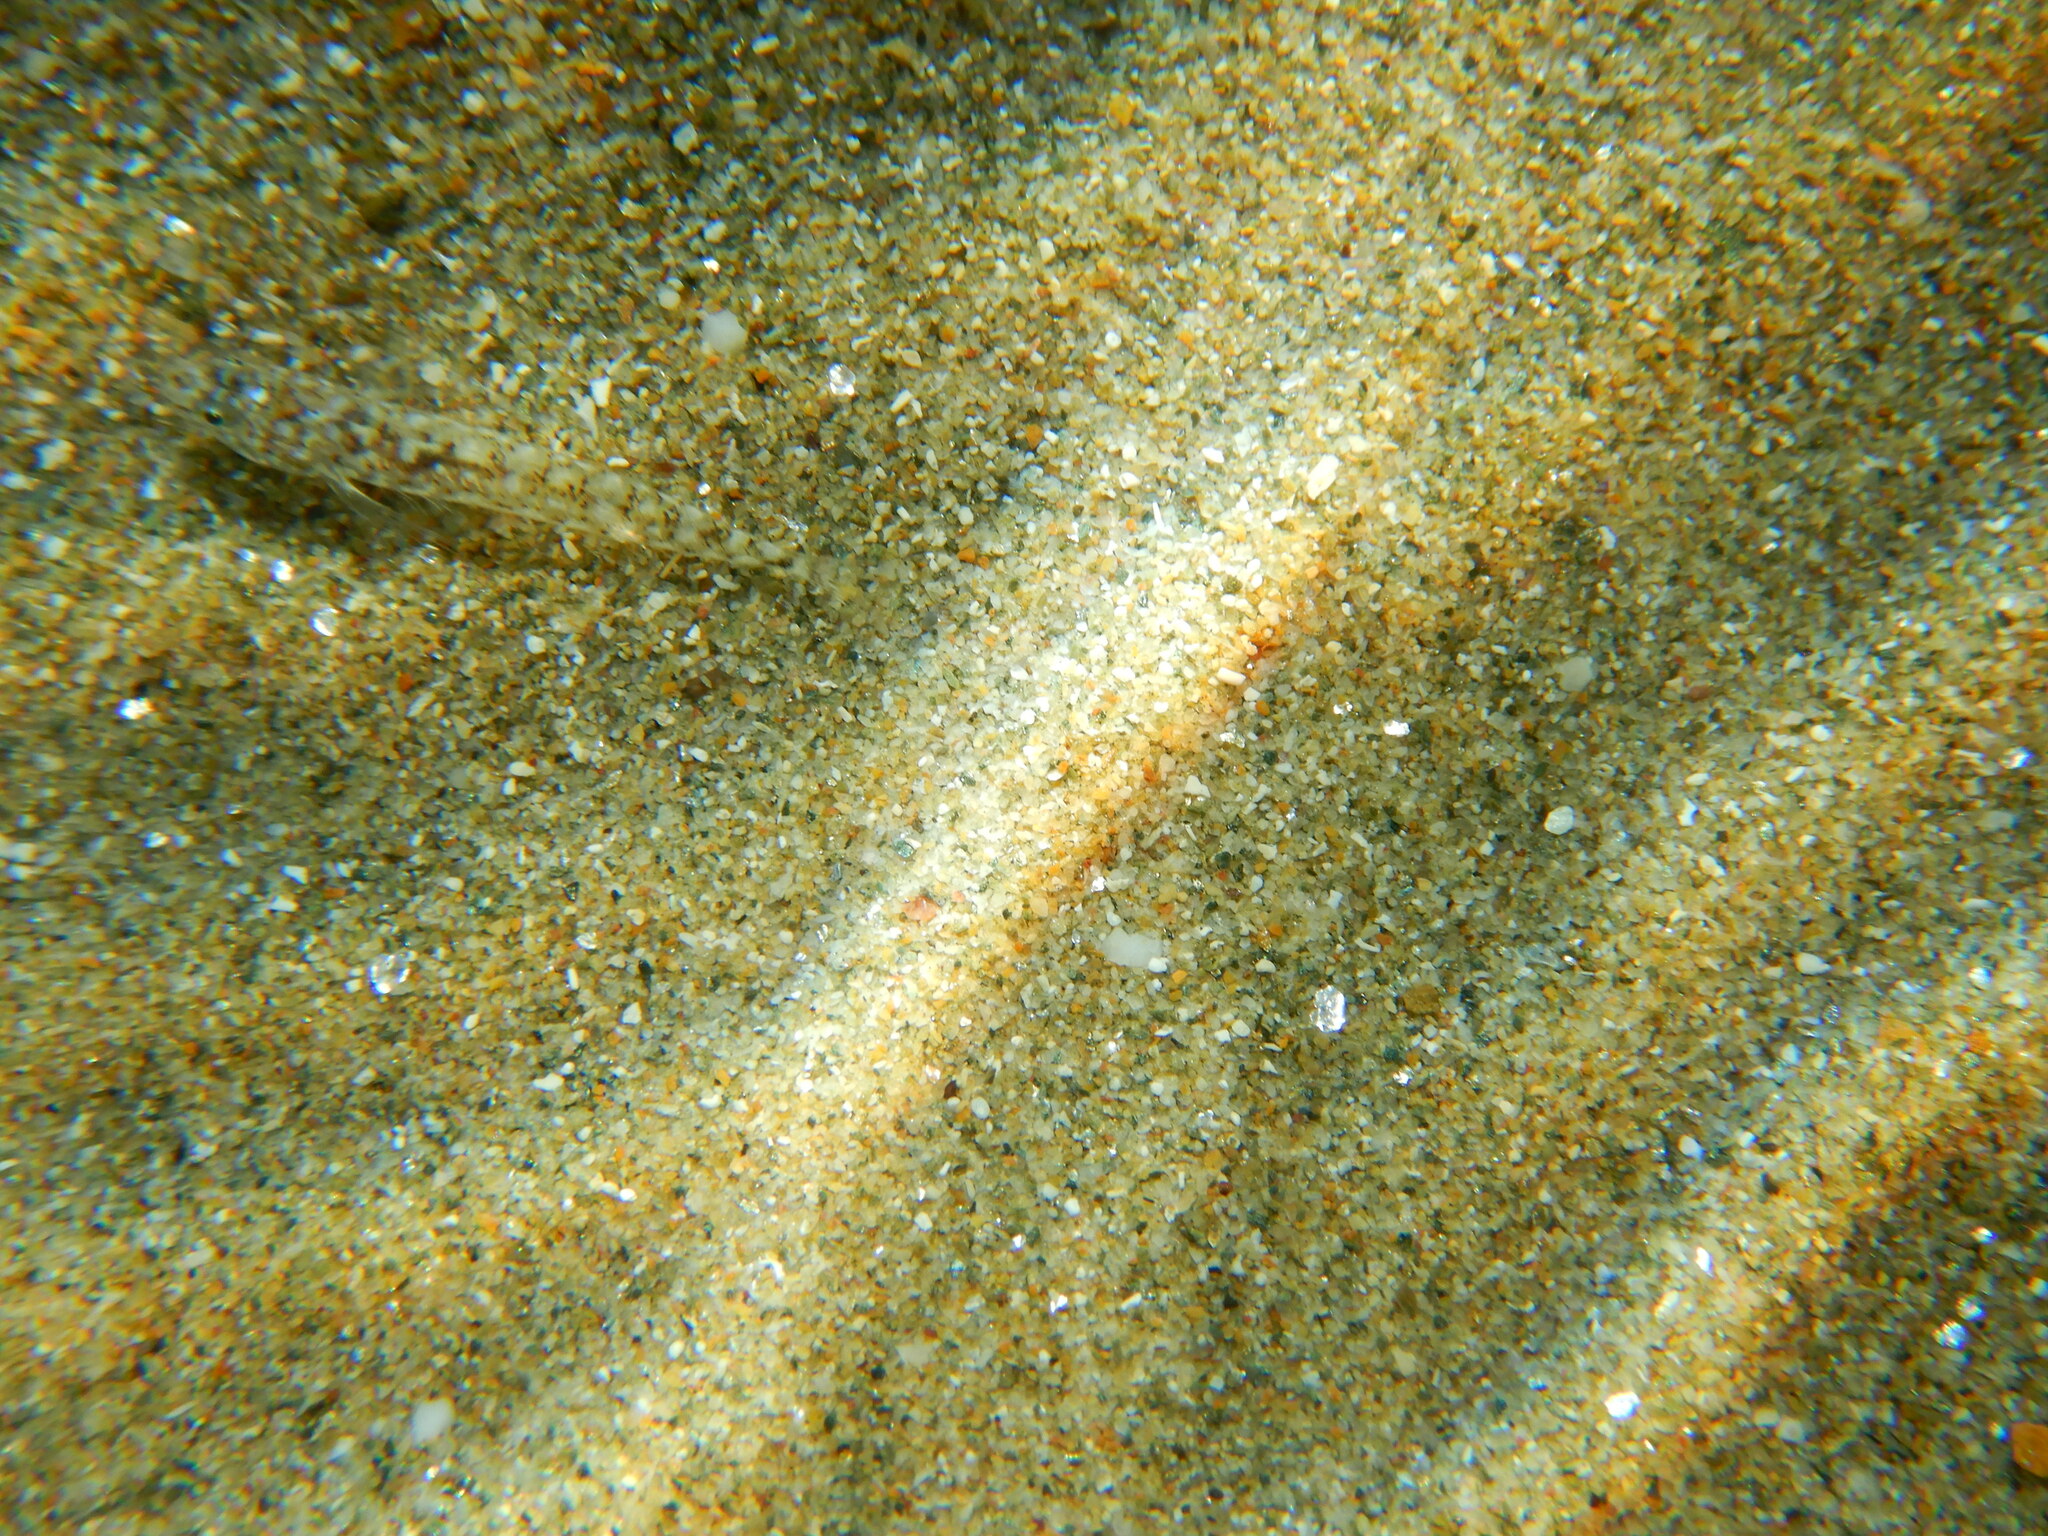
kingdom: Animalia
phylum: Chordata
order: Perciformes
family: Gobiidae
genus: Pomatoschistus
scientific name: Pomatoschistus marmoratus
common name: Marbled goby
